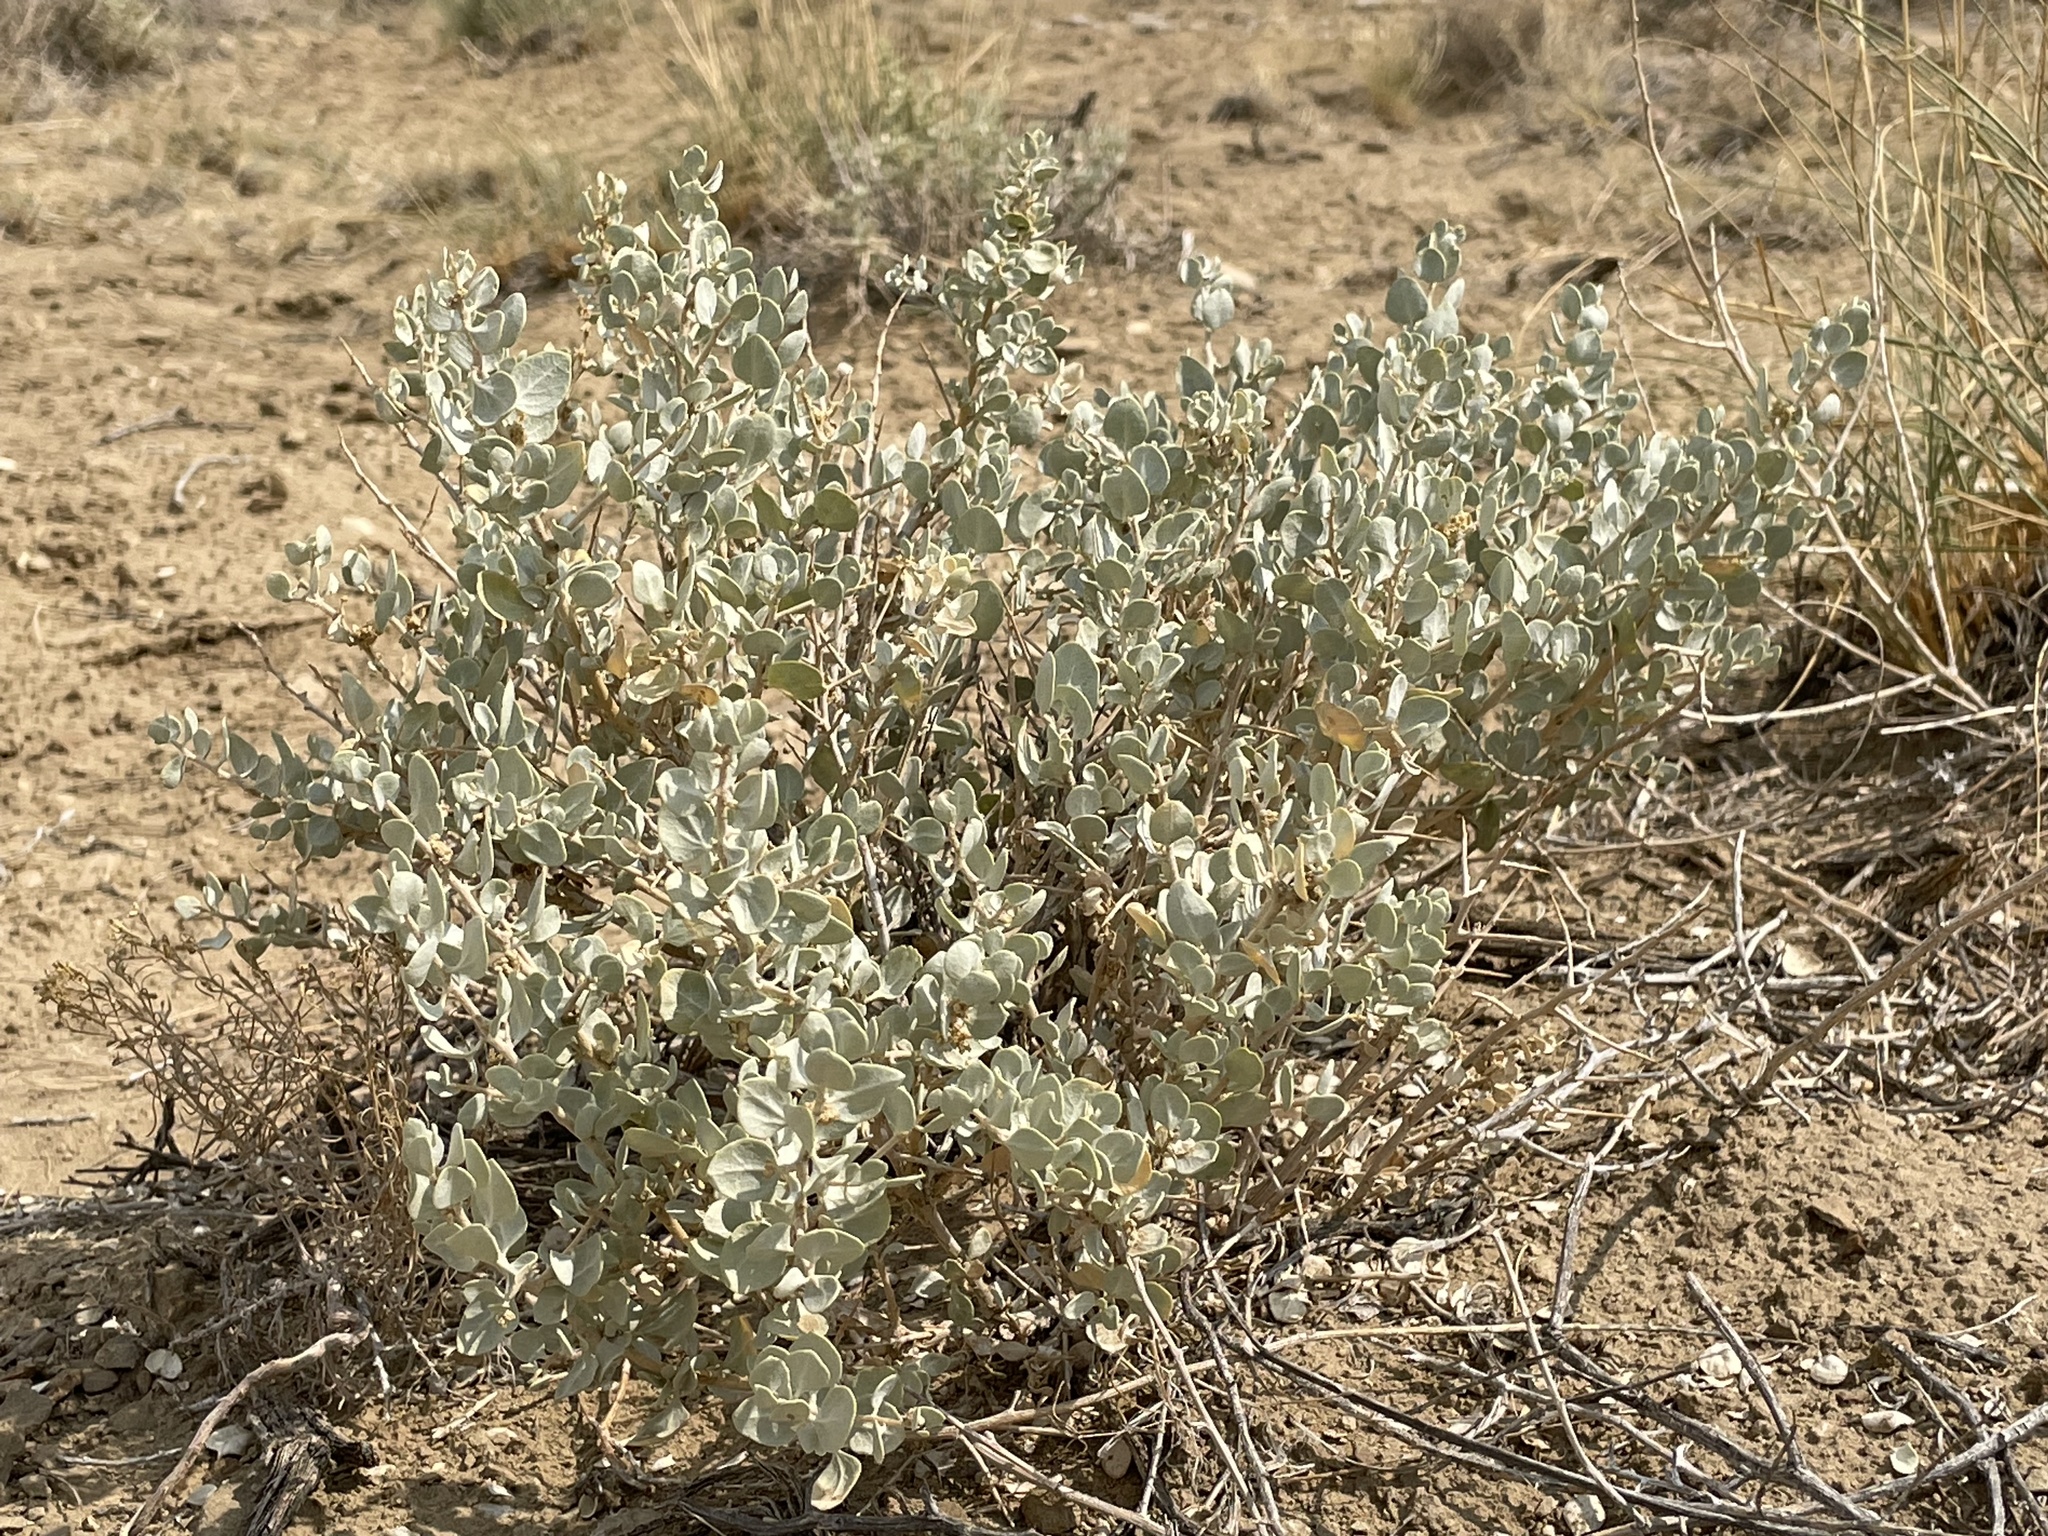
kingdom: Plantae
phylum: Tracheophyta
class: Magnoliopsida
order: Caryophyllales
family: Amaranthaceae
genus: Atriplex
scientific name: Atriplex confertifolia
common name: Shadscale
